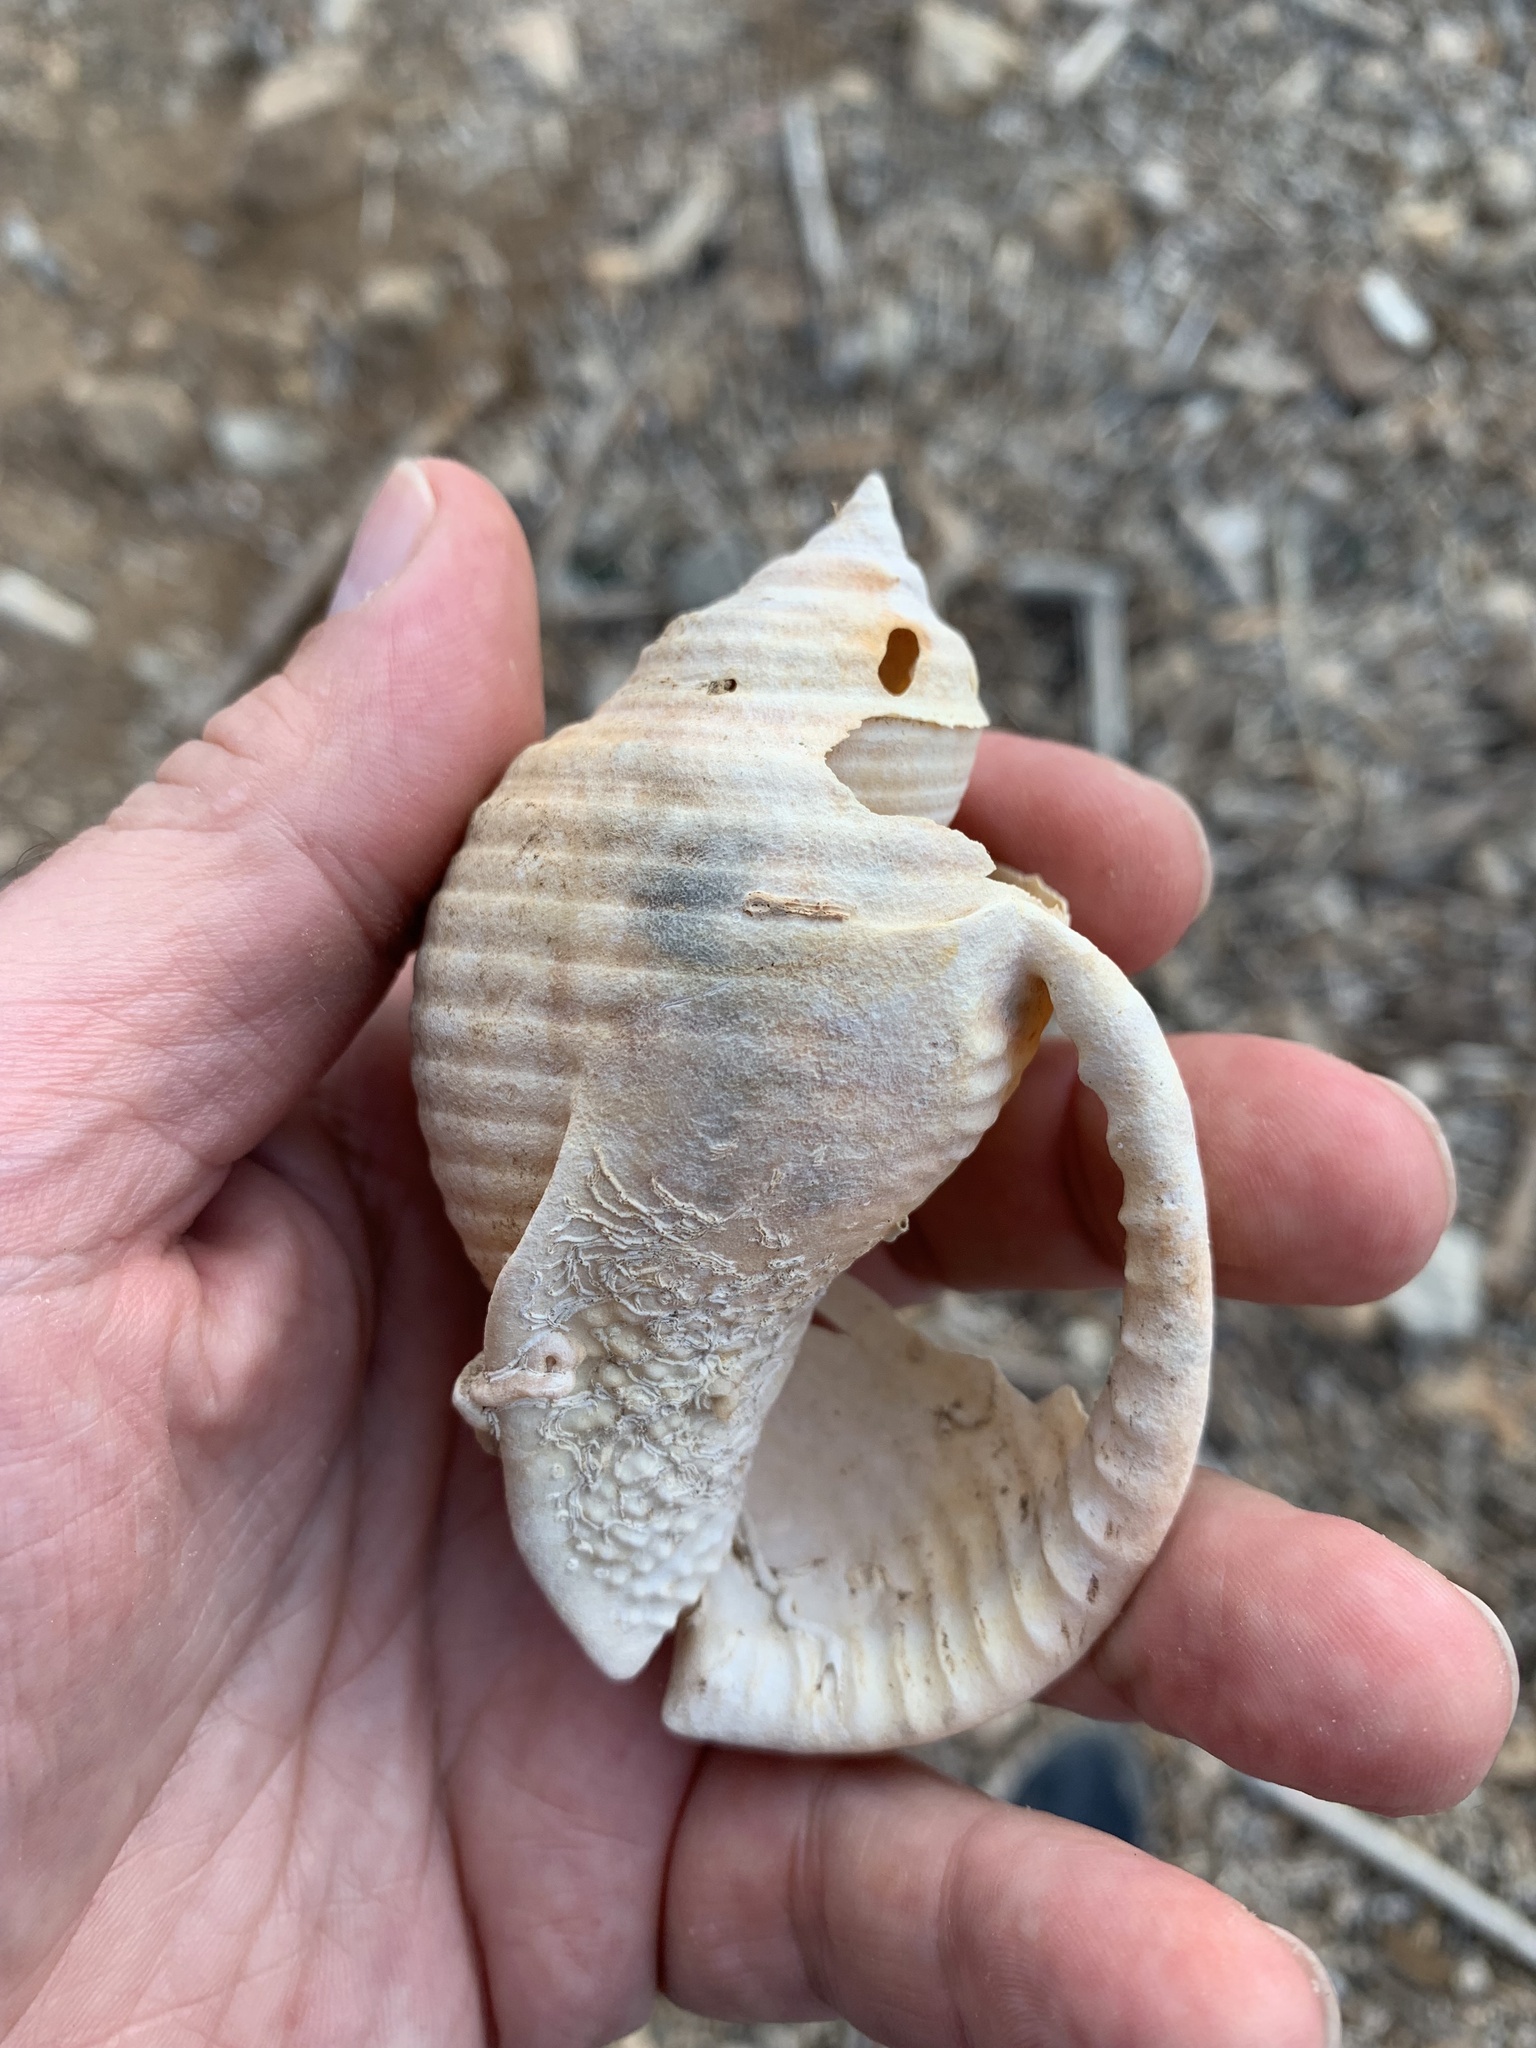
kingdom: Animalia
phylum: Mollusca
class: Gastropoda
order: Littorinimorpha
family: Cassidae
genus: Semicassis
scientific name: Semicassis undulata
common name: Mediterranean bonnet
